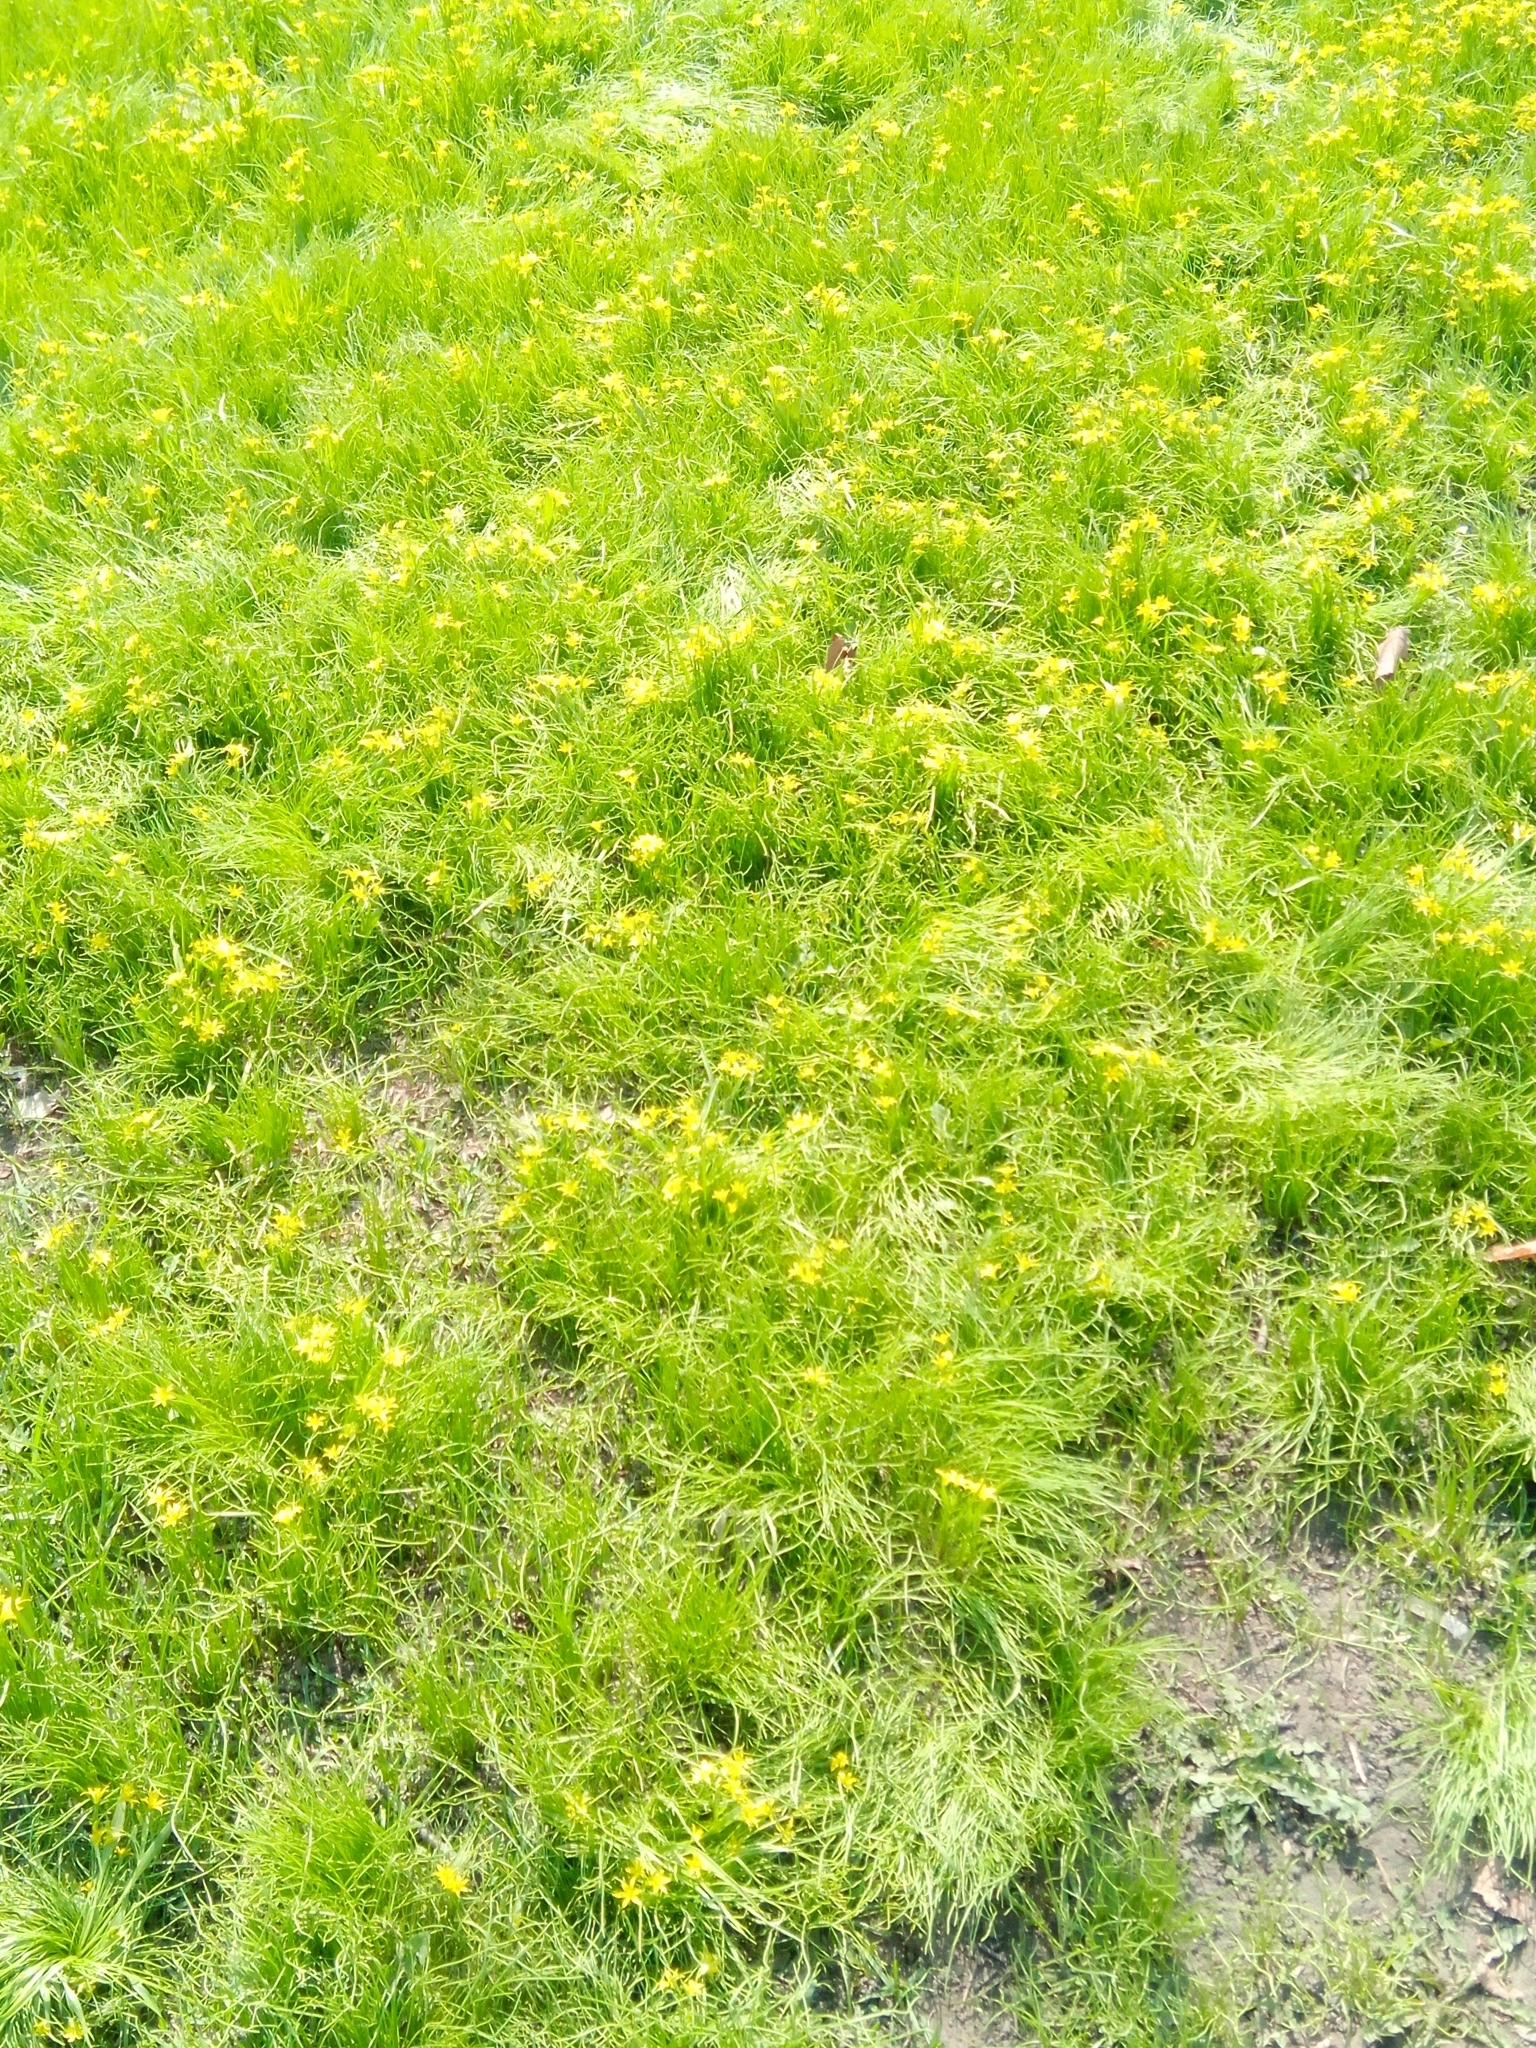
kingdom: Plantae
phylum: Tracheophyta
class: Liliopsida
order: Liliales
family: Liliaceae
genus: Gagea
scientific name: Gagea minima
